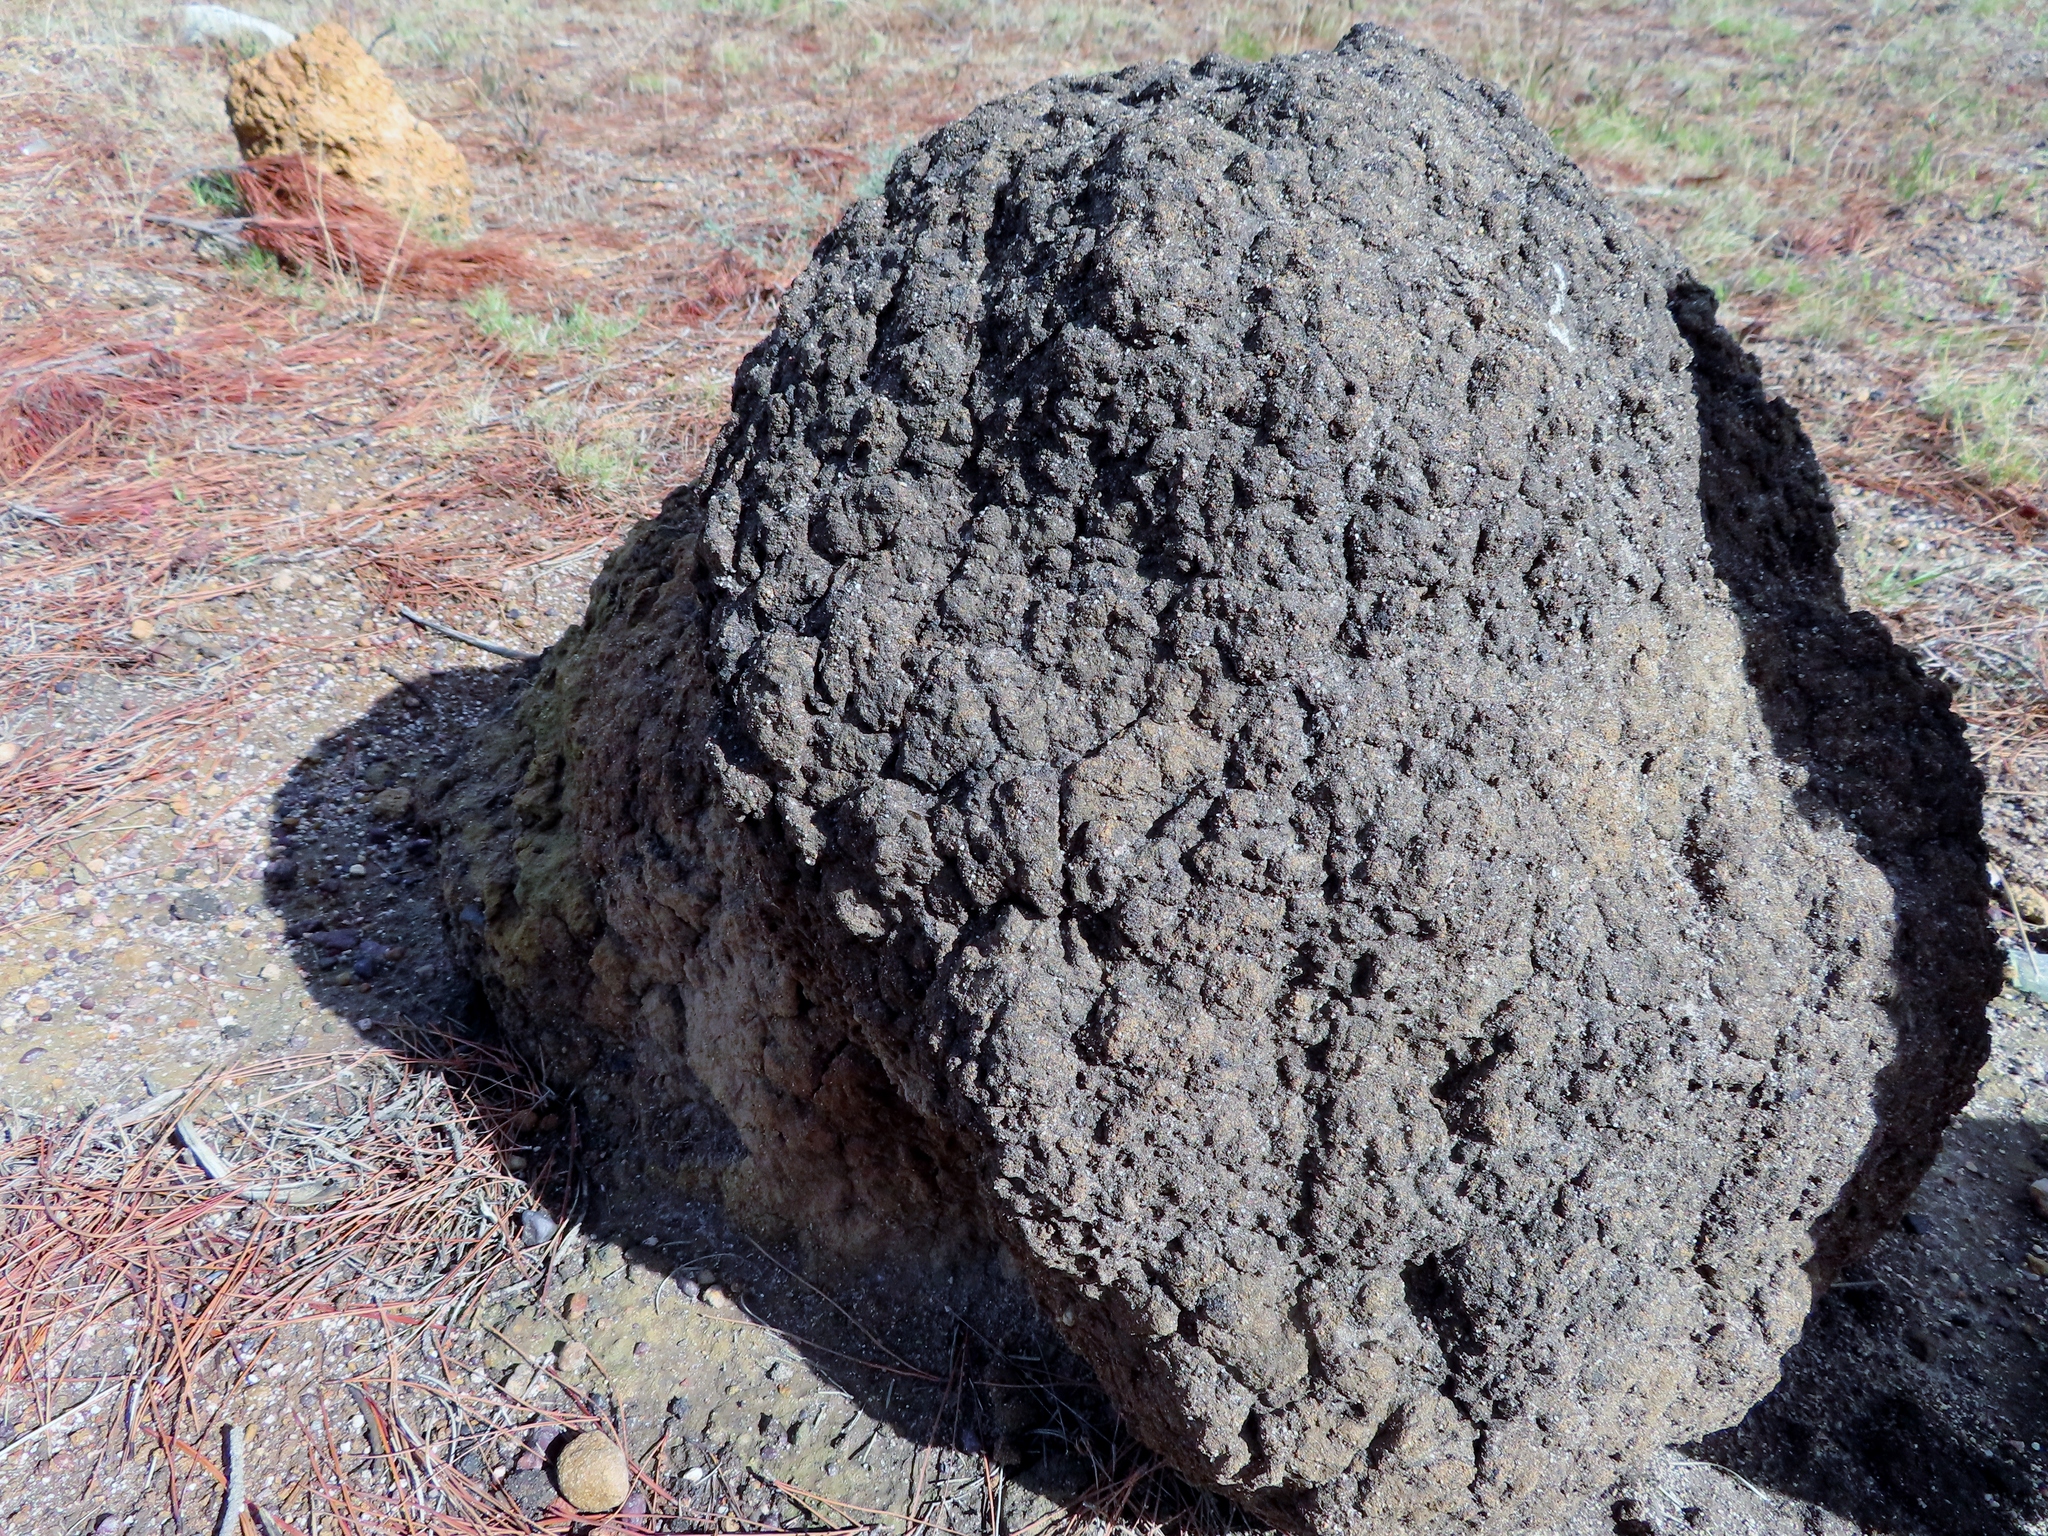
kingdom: Animalia
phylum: Arthropoda
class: Insecta
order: Blattodea
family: Termitidae
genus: Amitermes
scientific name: Amitermes hastatus
